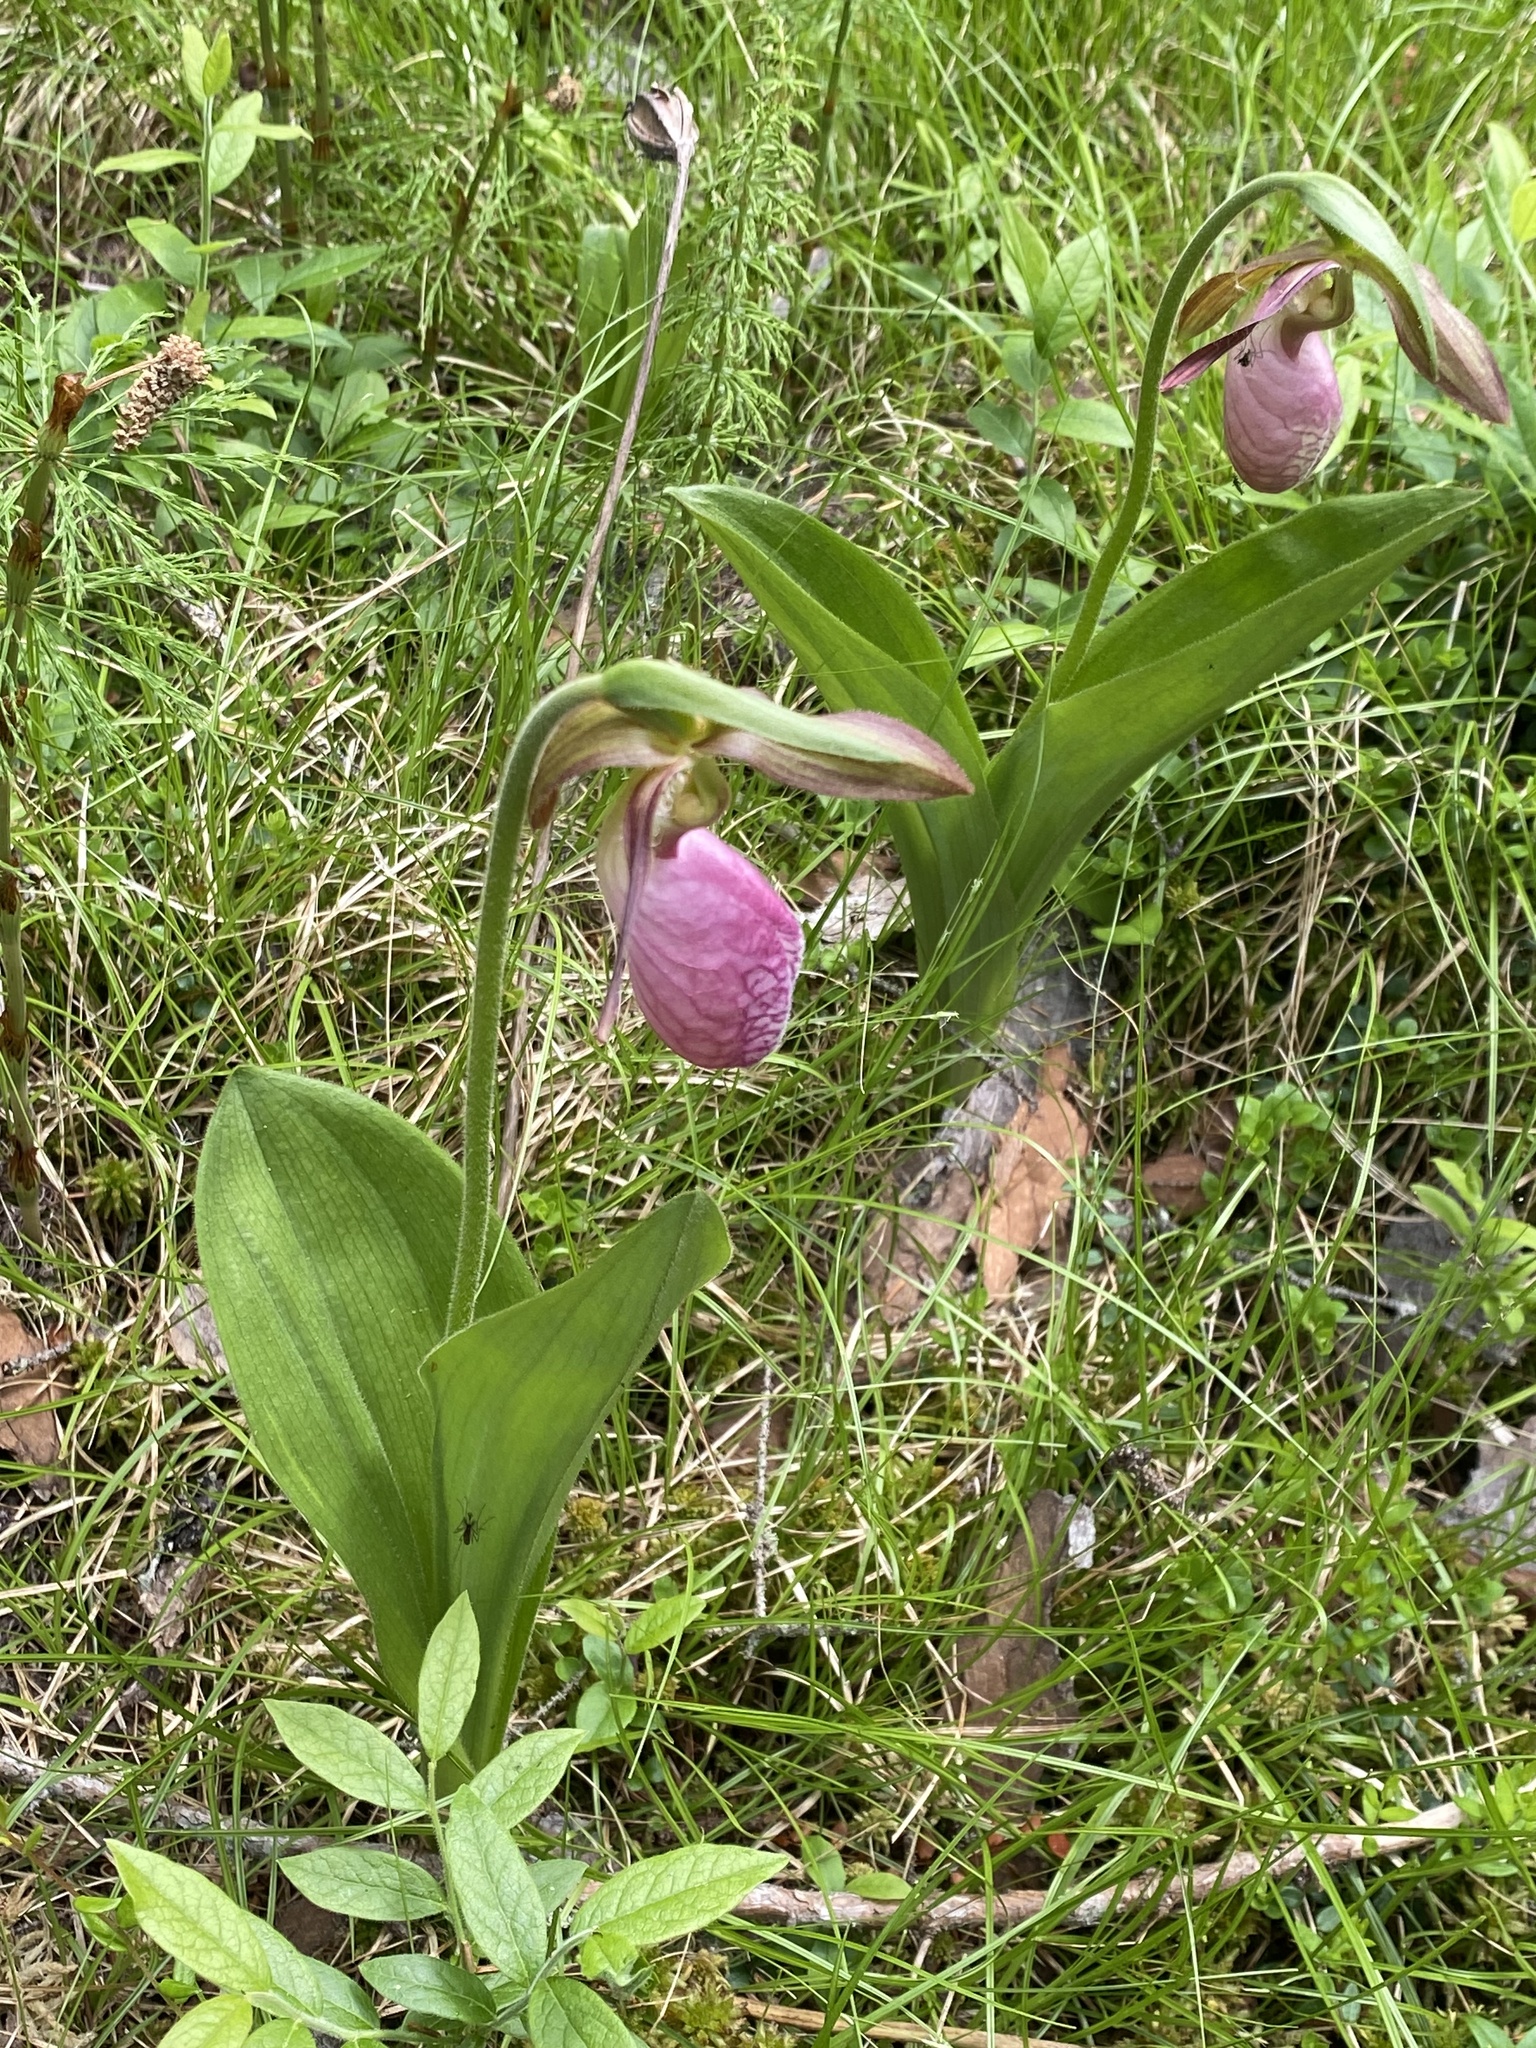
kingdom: Plantae
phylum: Tracheophyta
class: Liliopsida
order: Asparagales
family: Orchidaceae
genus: Cypripedium
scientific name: Cypripedium acaule
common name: Pink lady's-slipper
